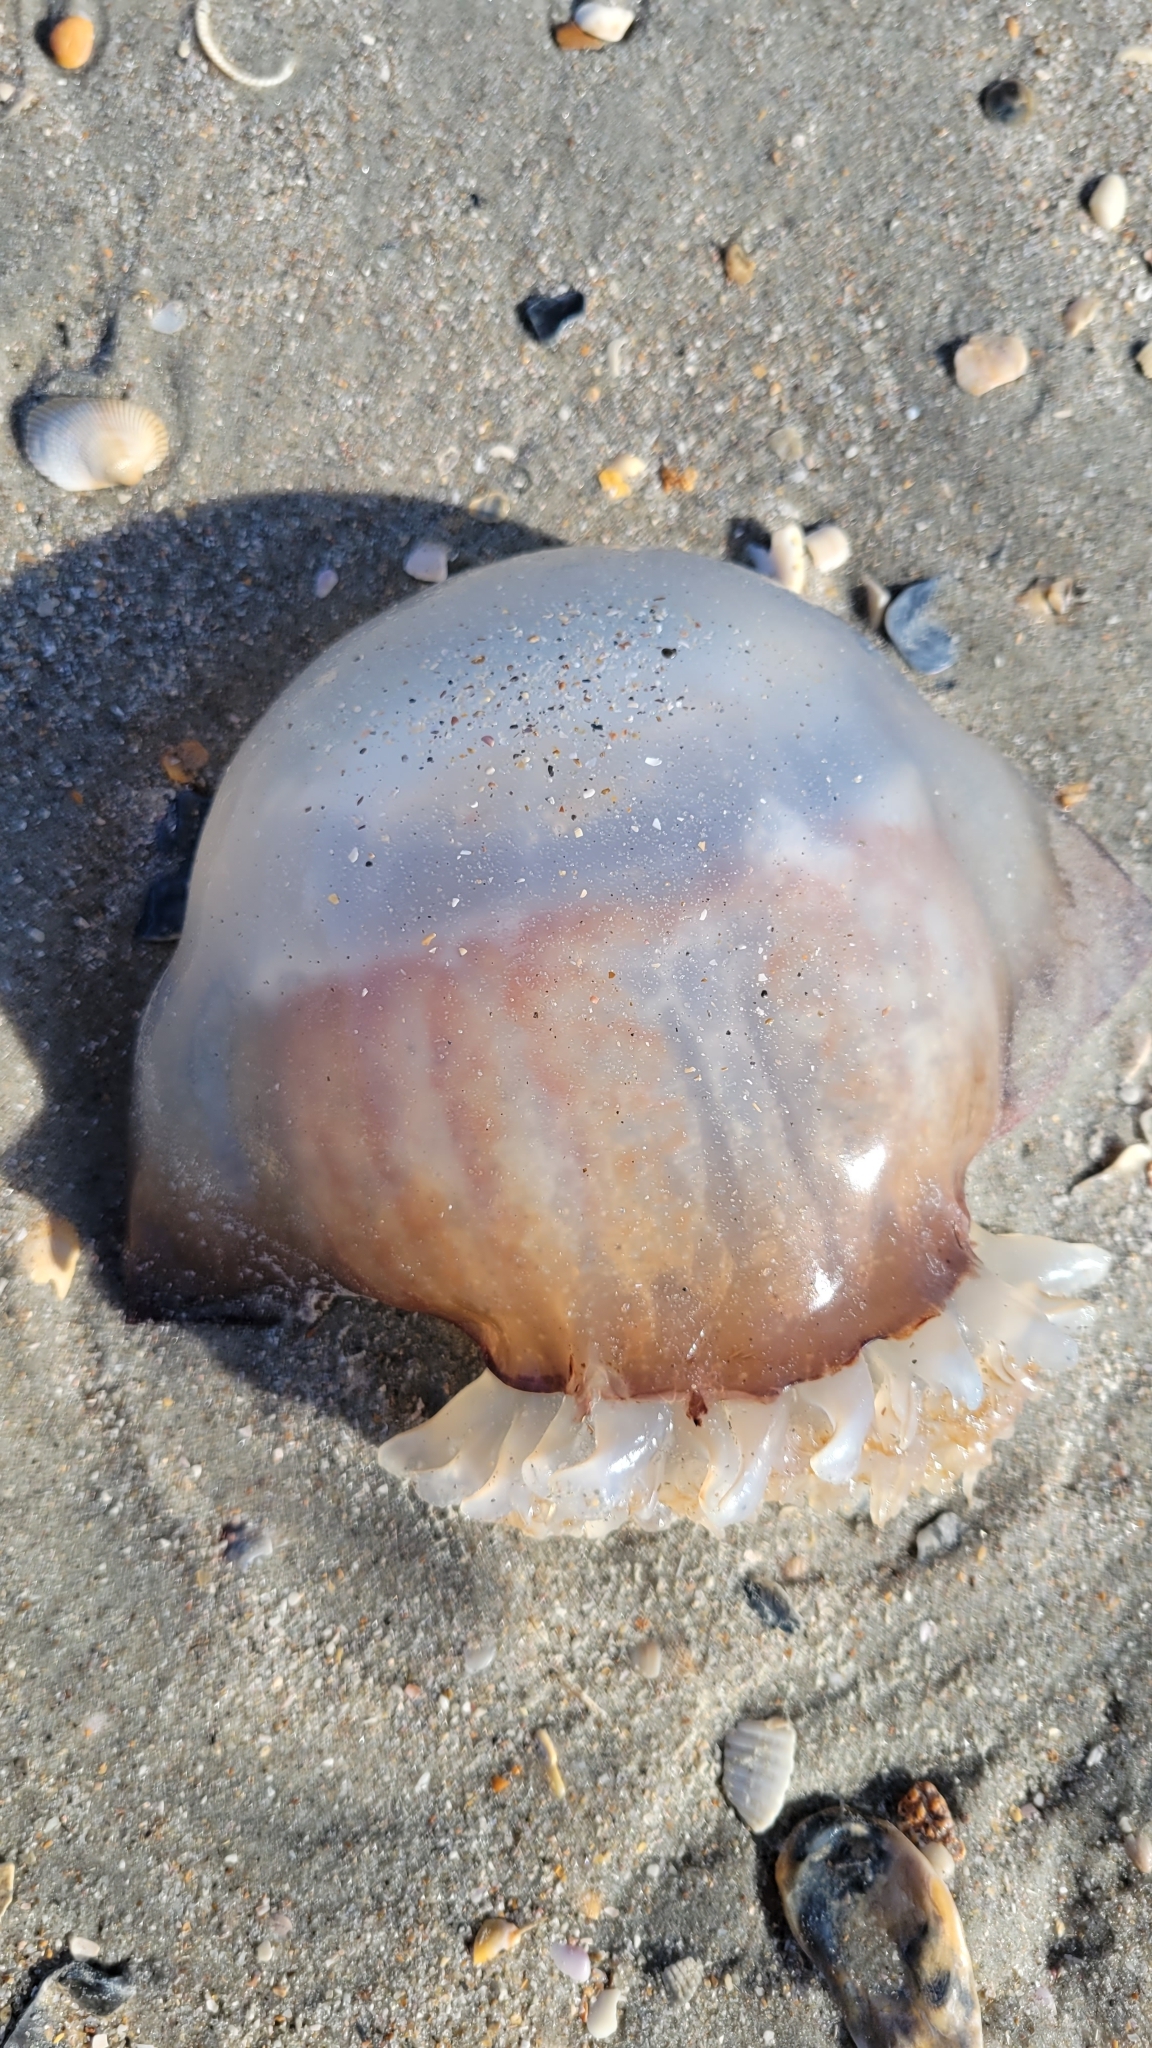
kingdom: Animalia
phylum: Cnidaria
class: Scyphozoa
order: Rhizostomeae
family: Stomolophidae
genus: Stomolophus
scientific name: Stomolophus meleagris
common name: Cabbagehead
